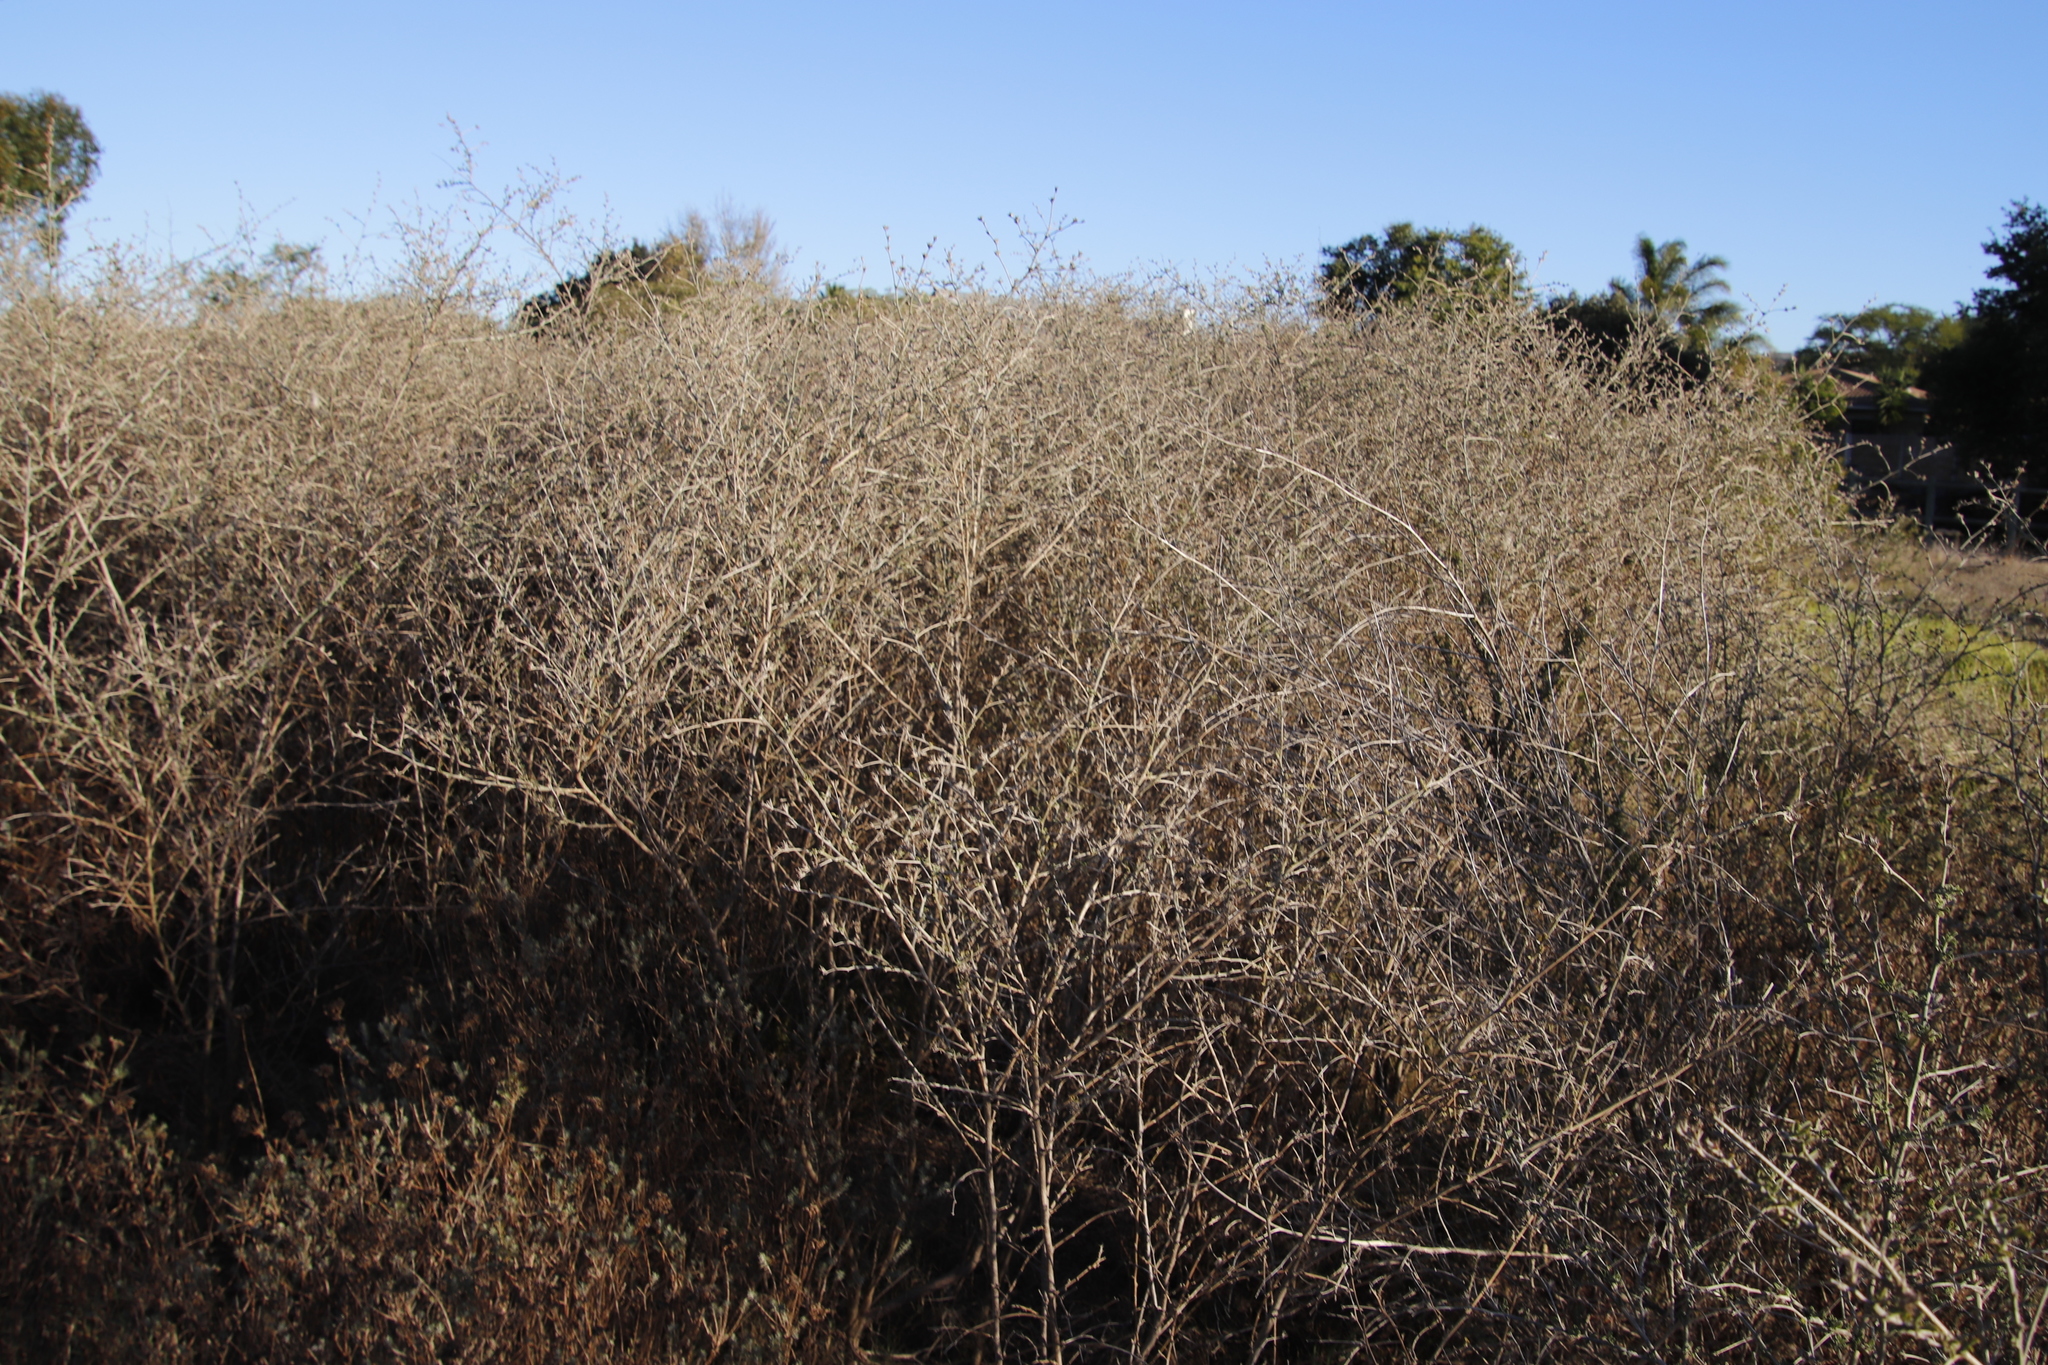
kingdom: Plantae
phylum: Tracheophyta
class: Magnoliopsida
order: Fabales
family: Fabaceae
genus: Psoralea
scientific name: Psoralea hirta
